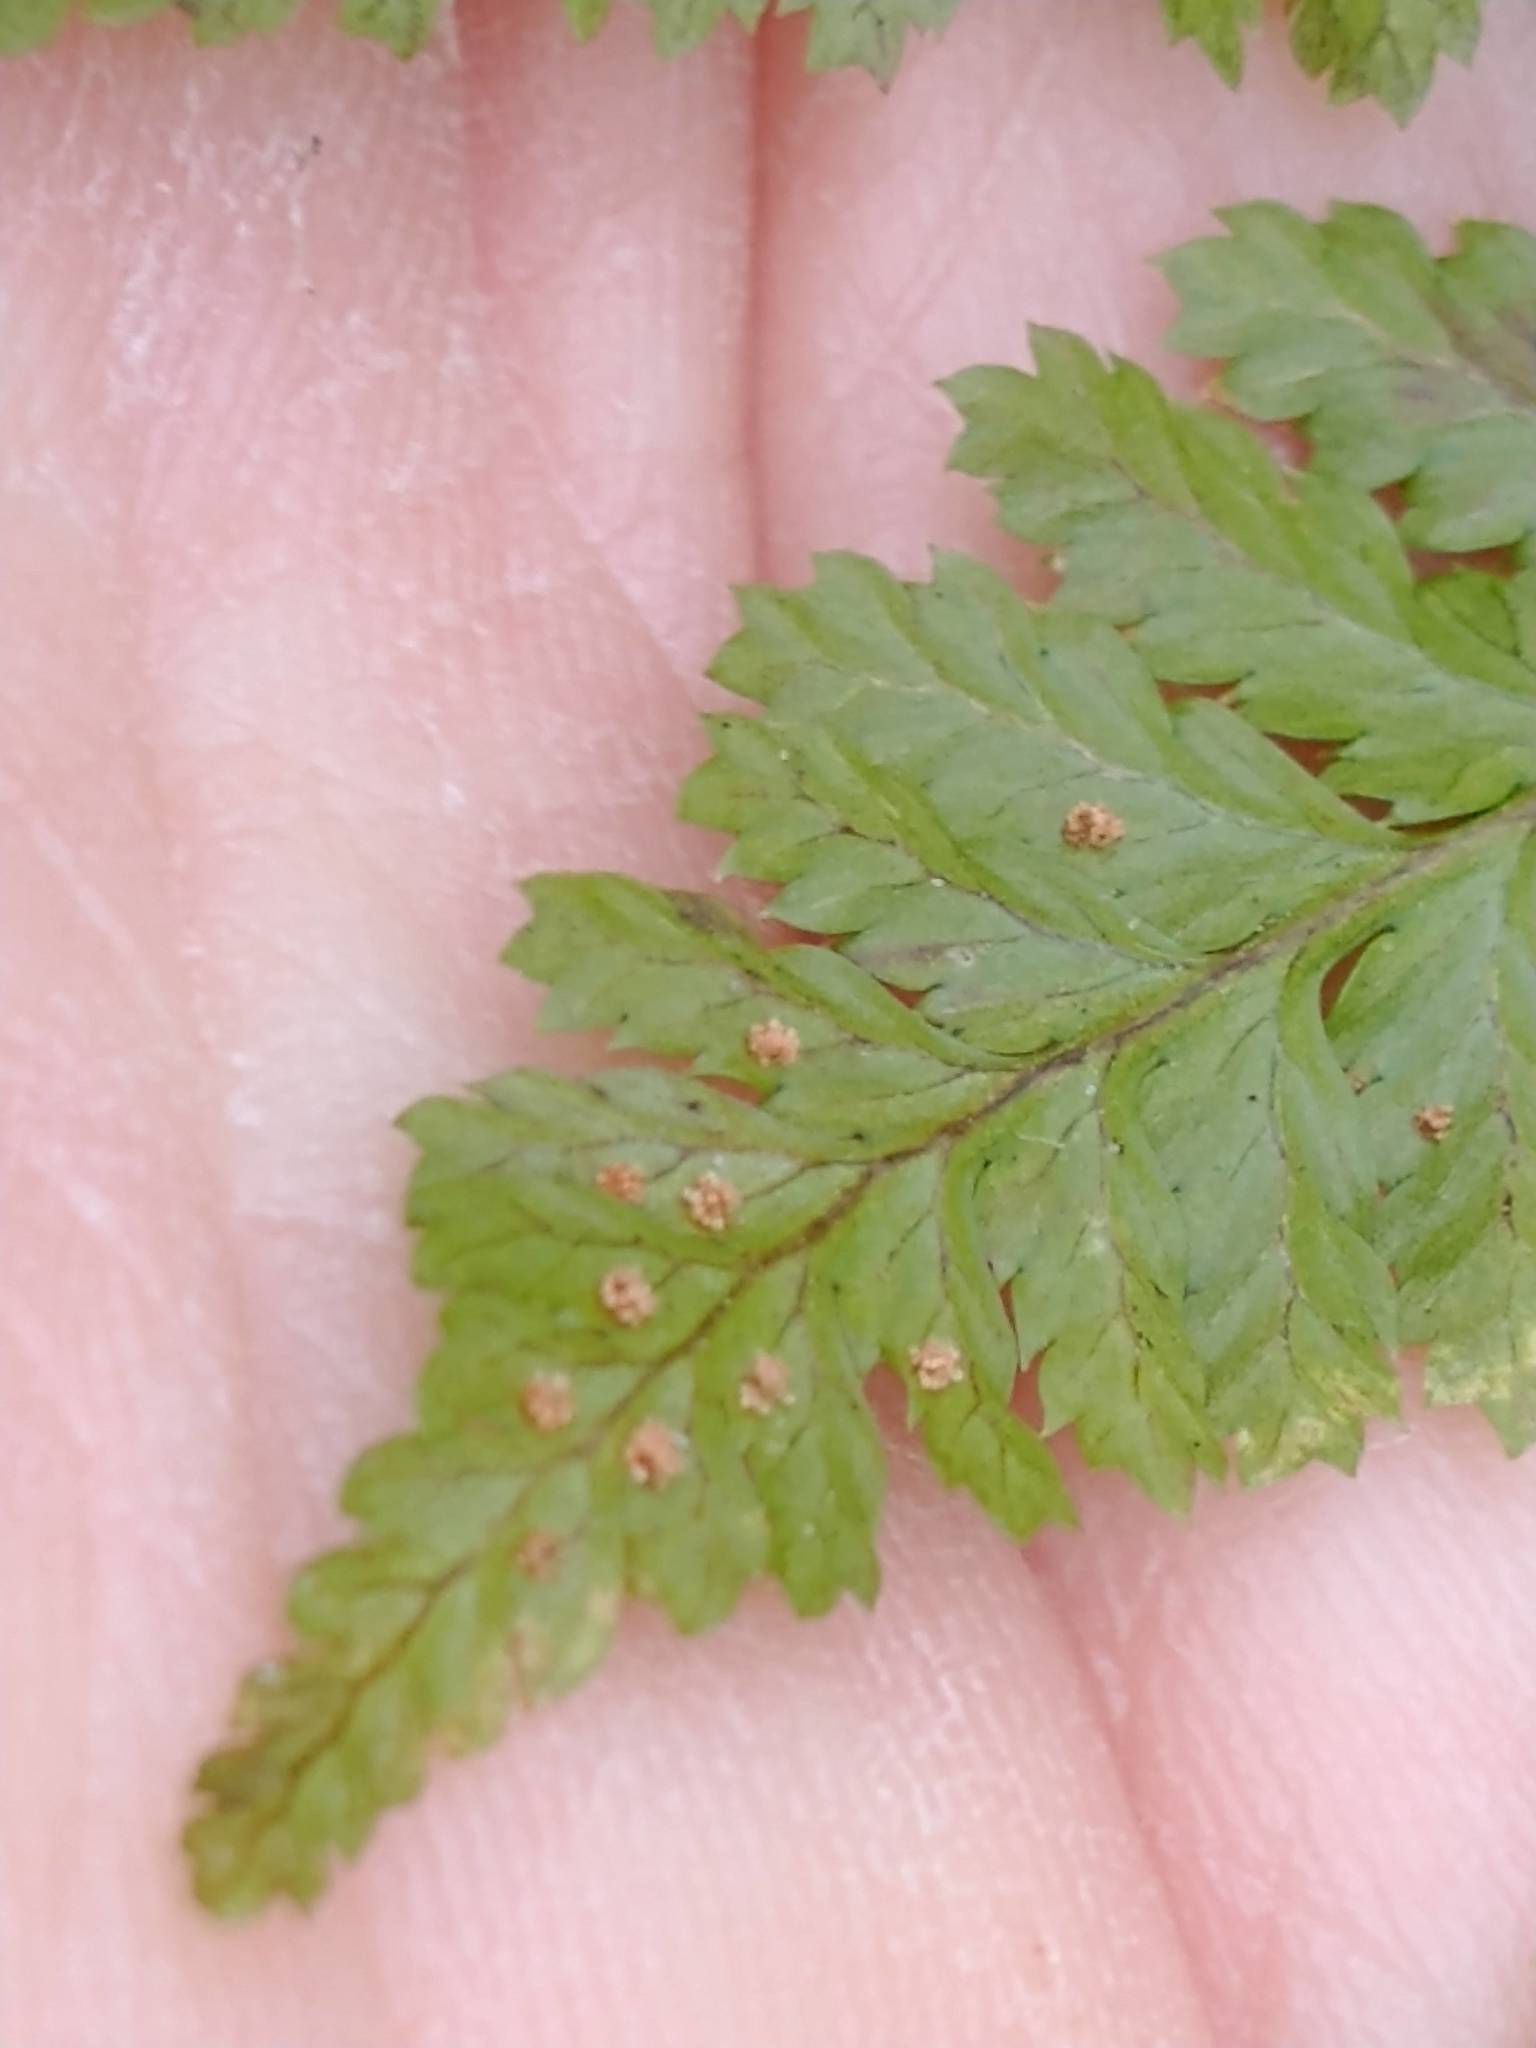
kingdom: Plantae
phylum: Tracheophyta
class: Polypodiopsida
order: Polypodiales
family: Dryopteridaceae
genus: Dryopteris
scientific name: Dryopteris intermedia
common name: Evergreen wood fern
